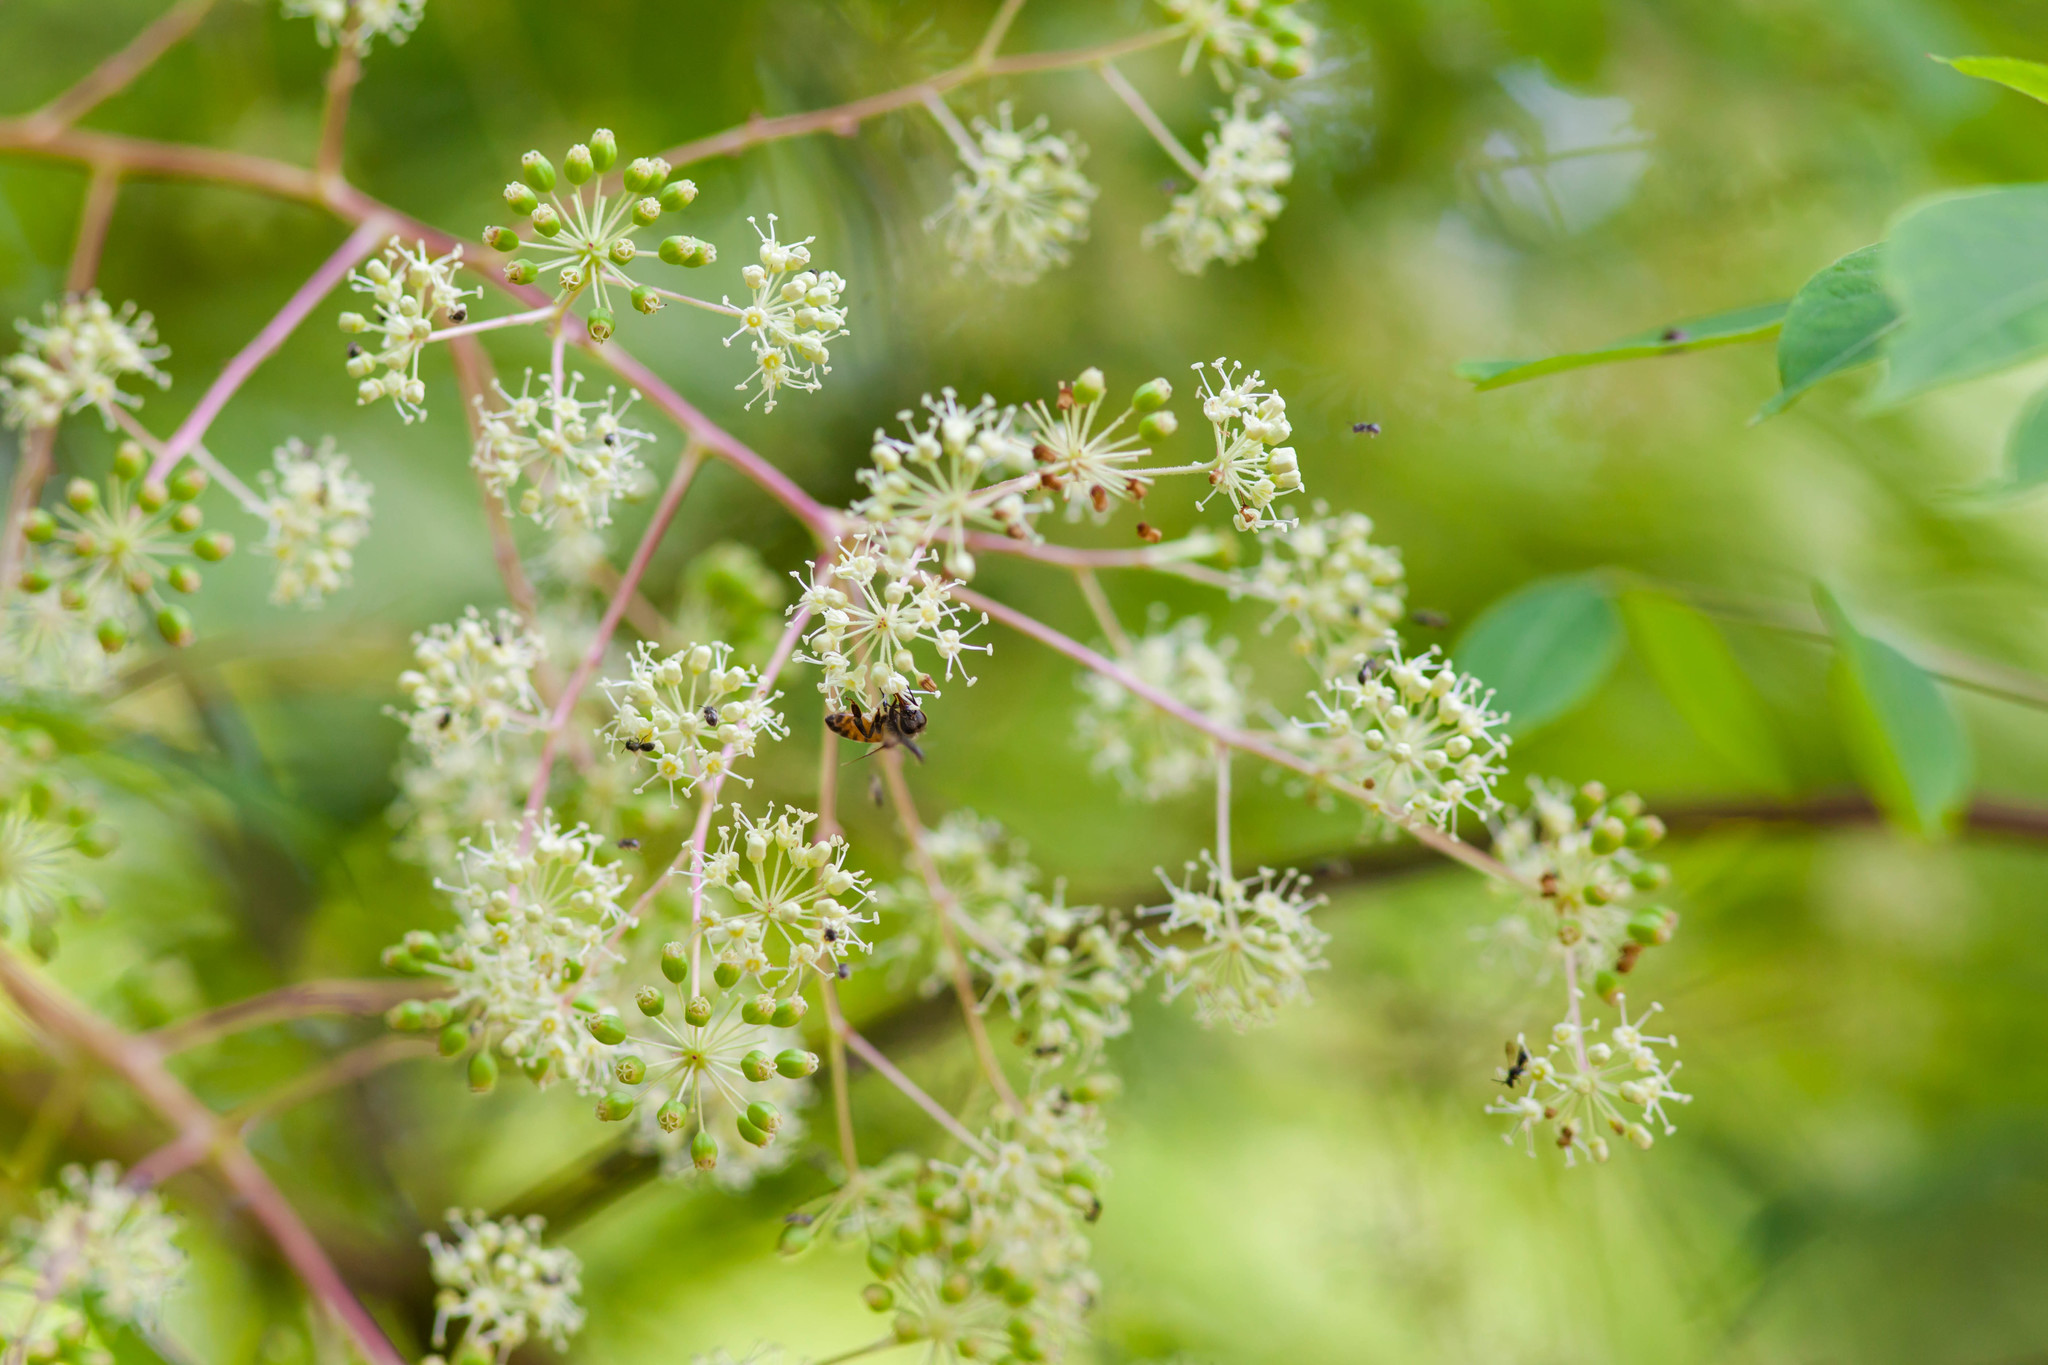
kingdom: Plantae
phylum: Tracheophyta
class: Magnoliopsida
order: Apiales
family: Araliaceae
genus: Aralia
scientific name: Aralia spinosa
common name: Hercules'-club
